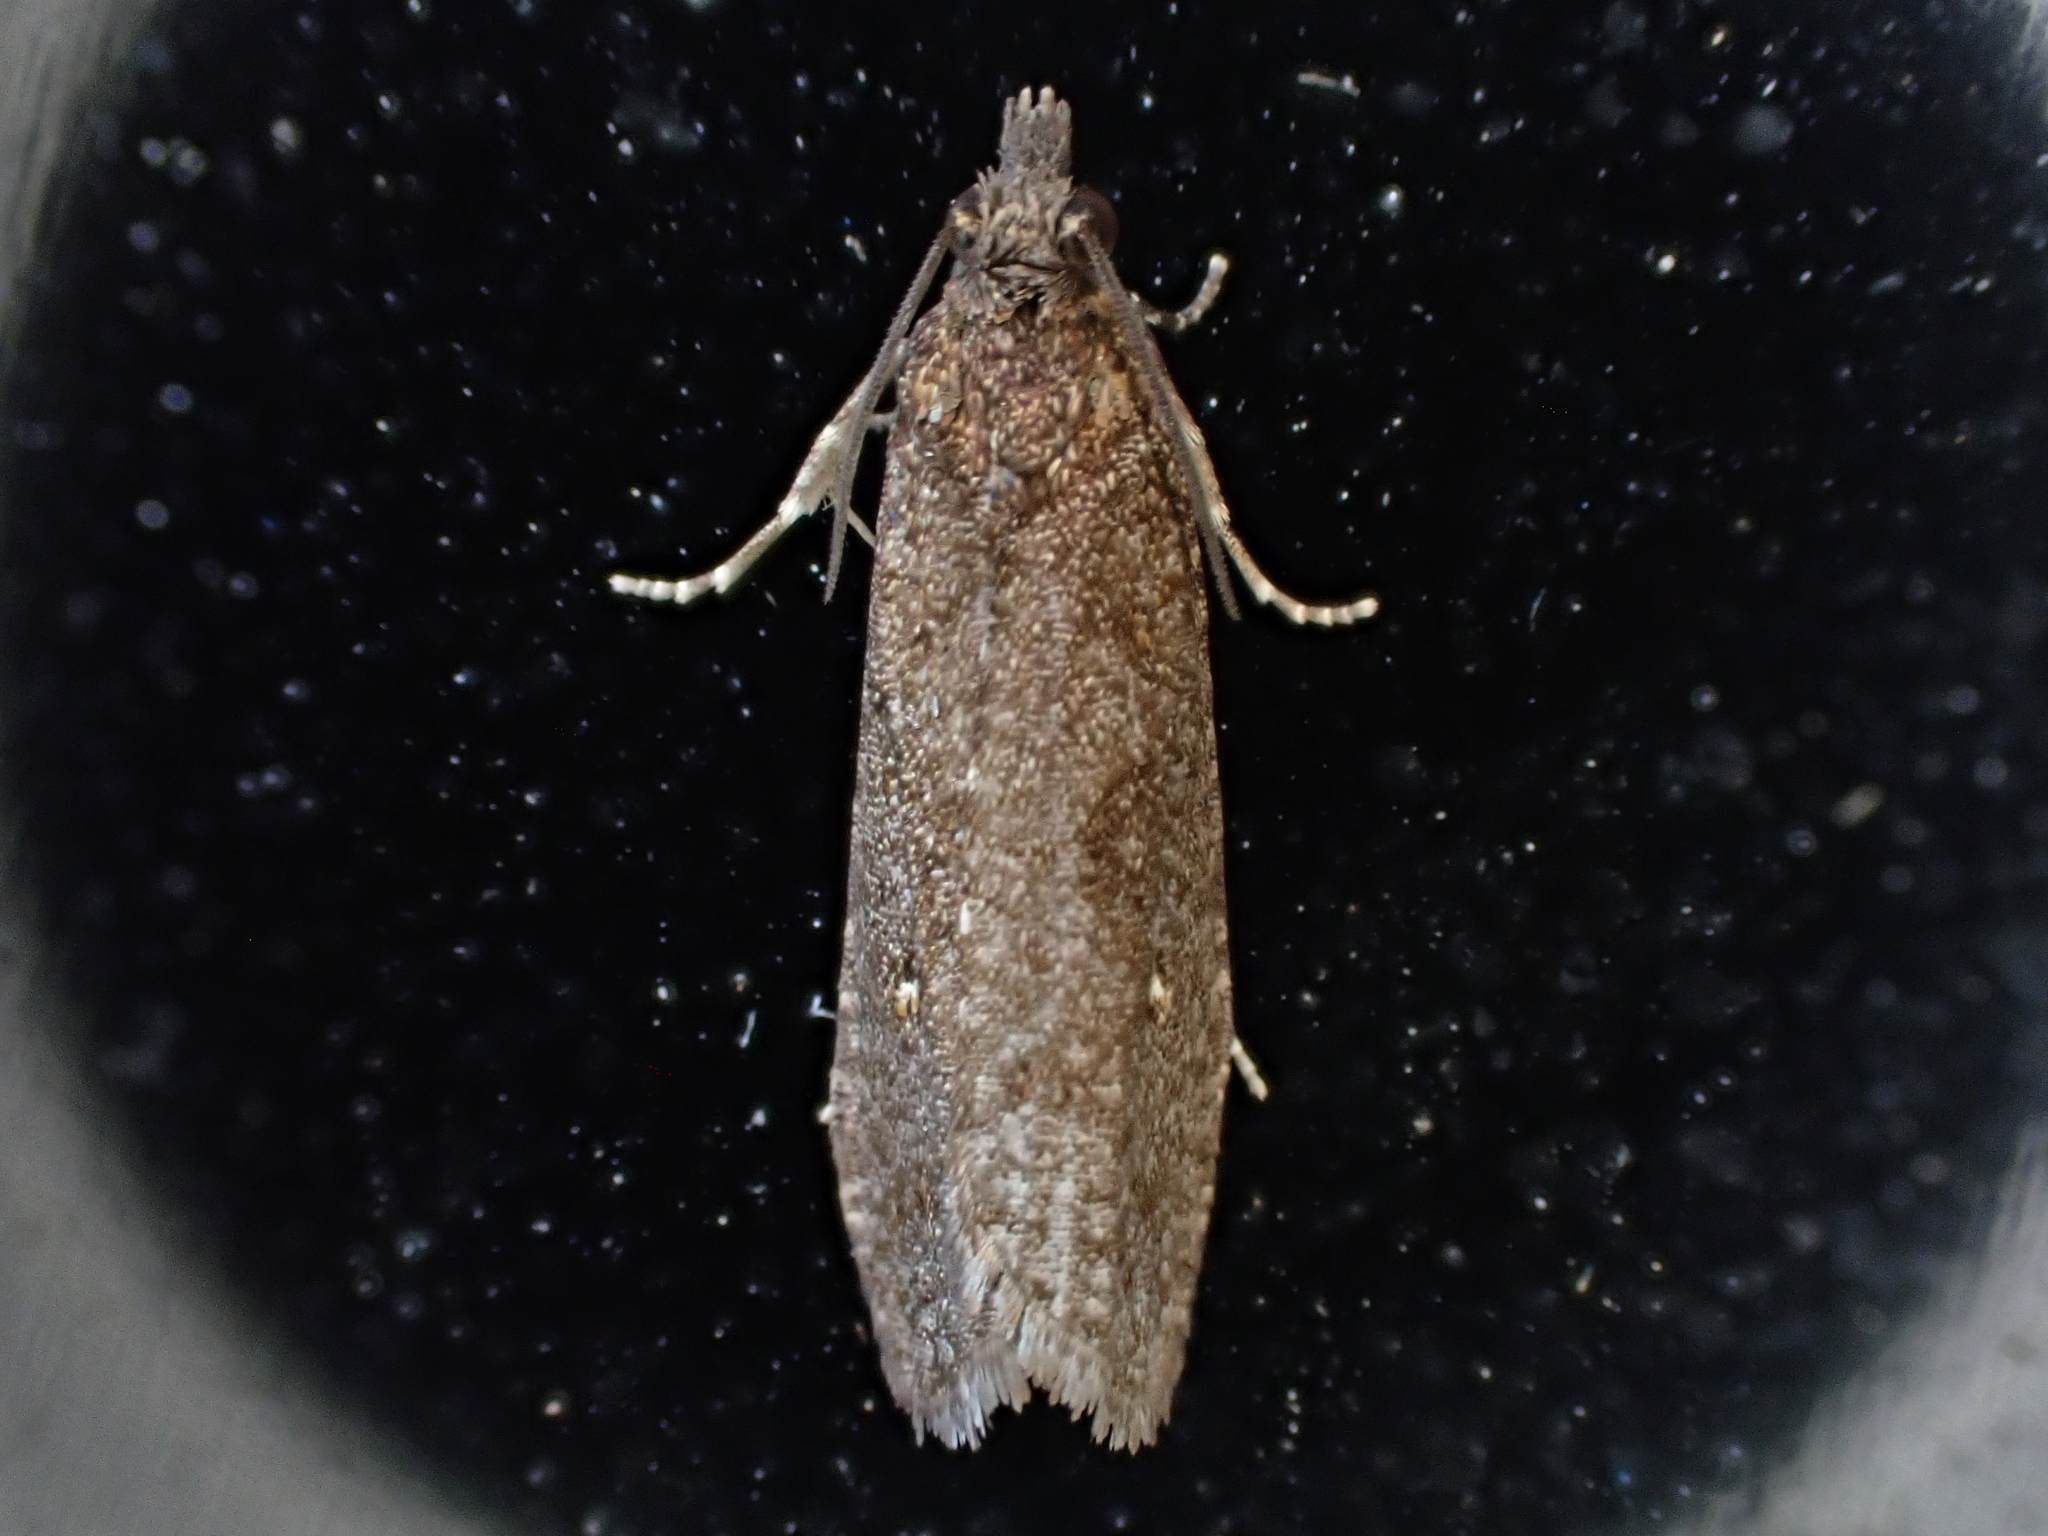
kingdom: Animalia
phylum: Arthropoda
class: Insecta
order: Lepidoptera
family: Tortricidae
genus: Cryptaspasma
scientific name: Cryptaspasma querula
